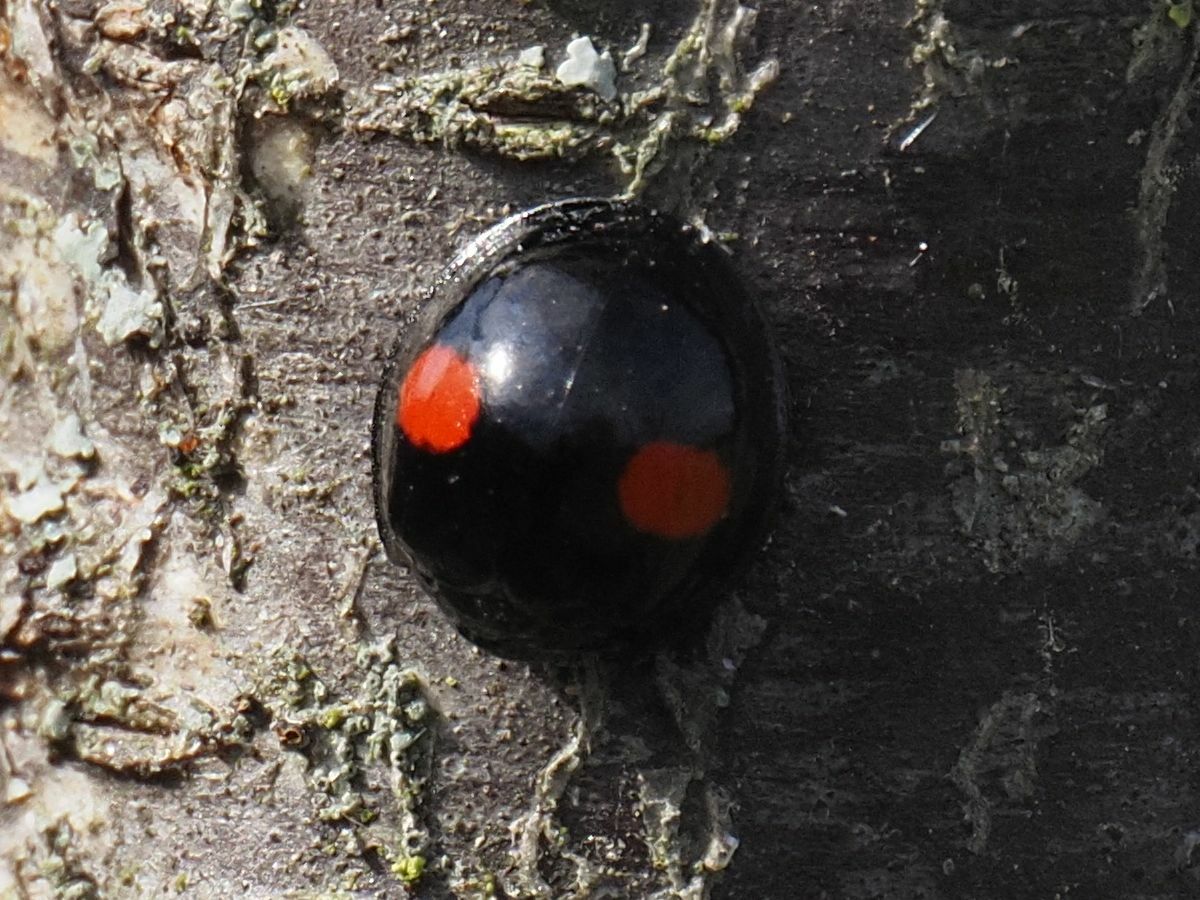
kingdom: Animalia
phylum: Arthropoda
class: Insecta
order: Coleoptera
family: Coccinellidae
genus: Chilocorus
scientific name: Chilocorus renipustulatus
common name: Kidney-spot ladybird
